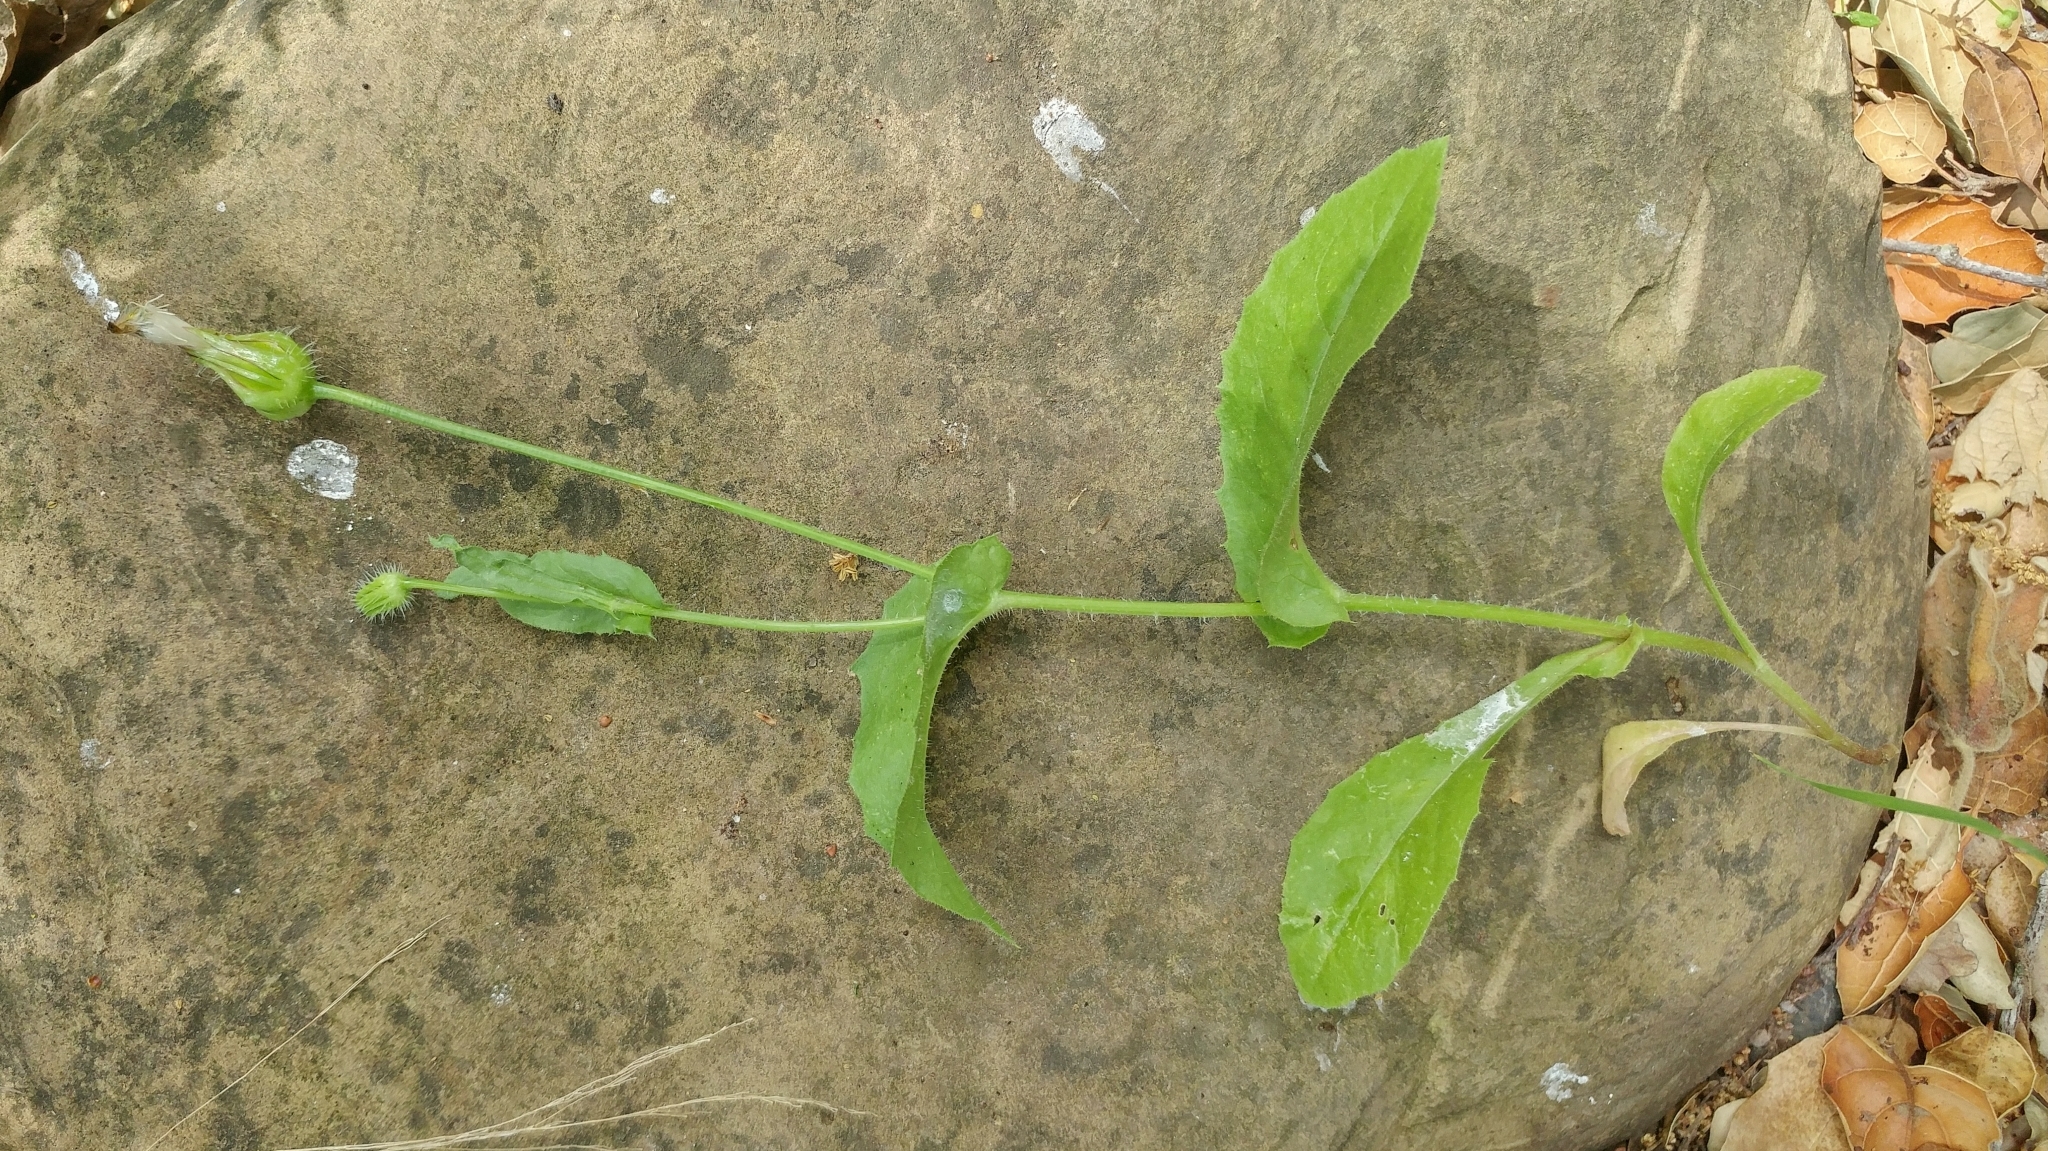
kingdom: Plantae
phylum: Tracheophyta
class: Magnoliopsida
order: Asterales
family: Asteraceae
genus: Urospermum
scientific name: Urospermum picroides
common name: False hawkbit
